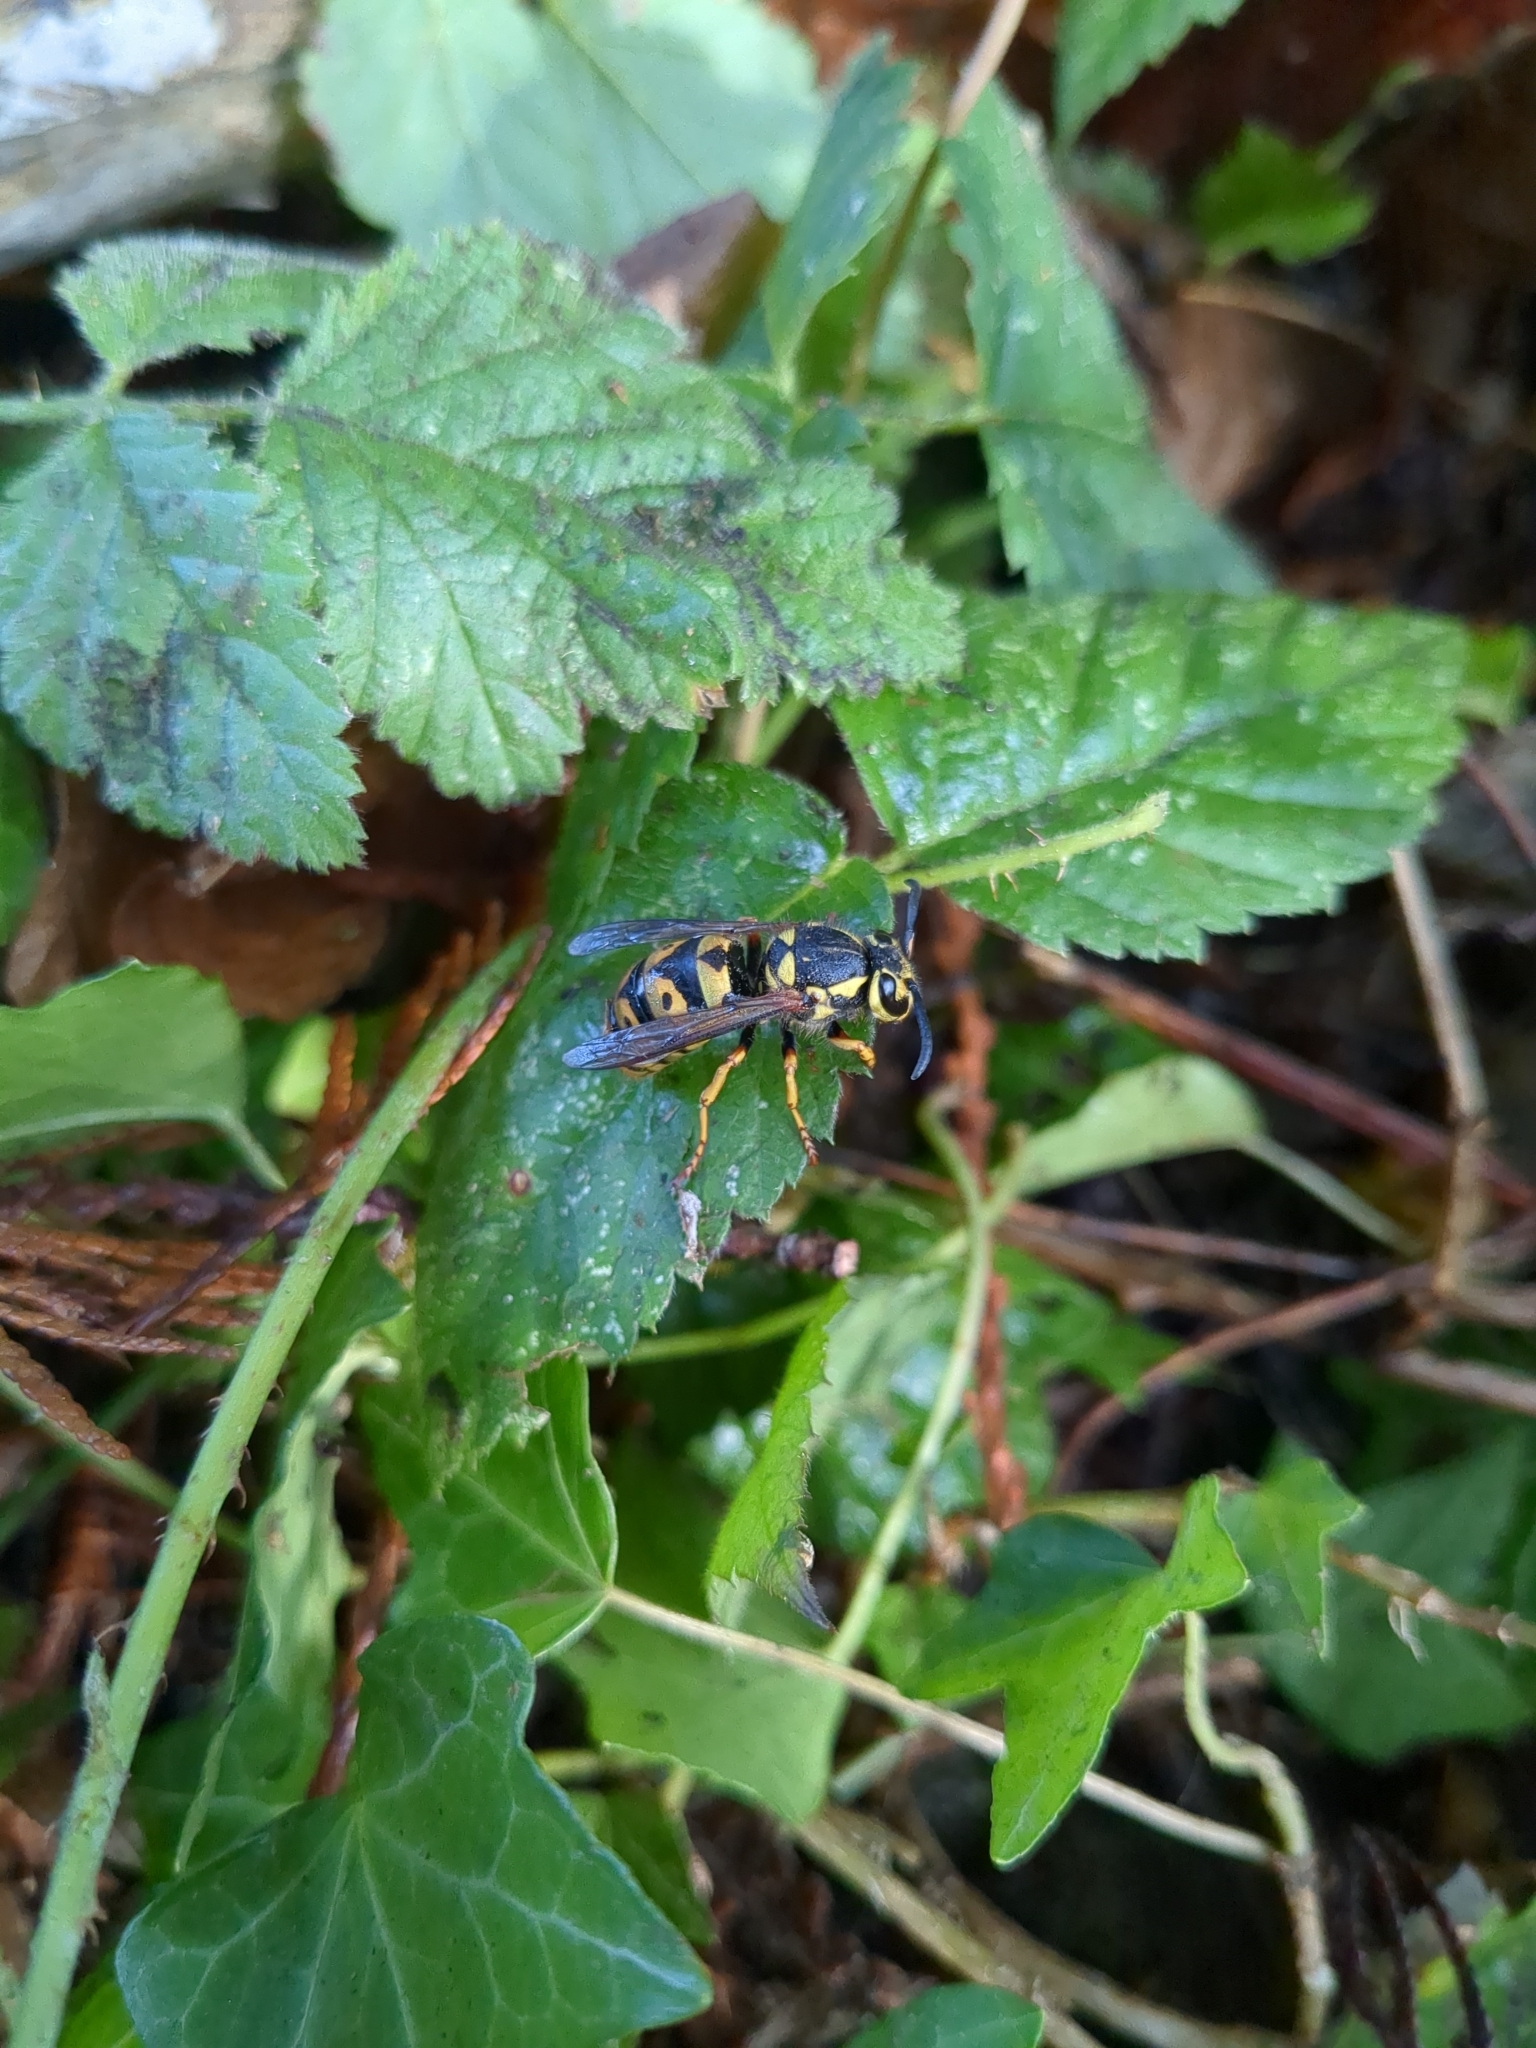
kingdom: Animalia
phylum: Arthropoda
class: Insecta
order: Hymenoptera
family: Vespidae
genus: Vespula
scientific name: Vespula pensylvanica
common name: Western yellowjacket
